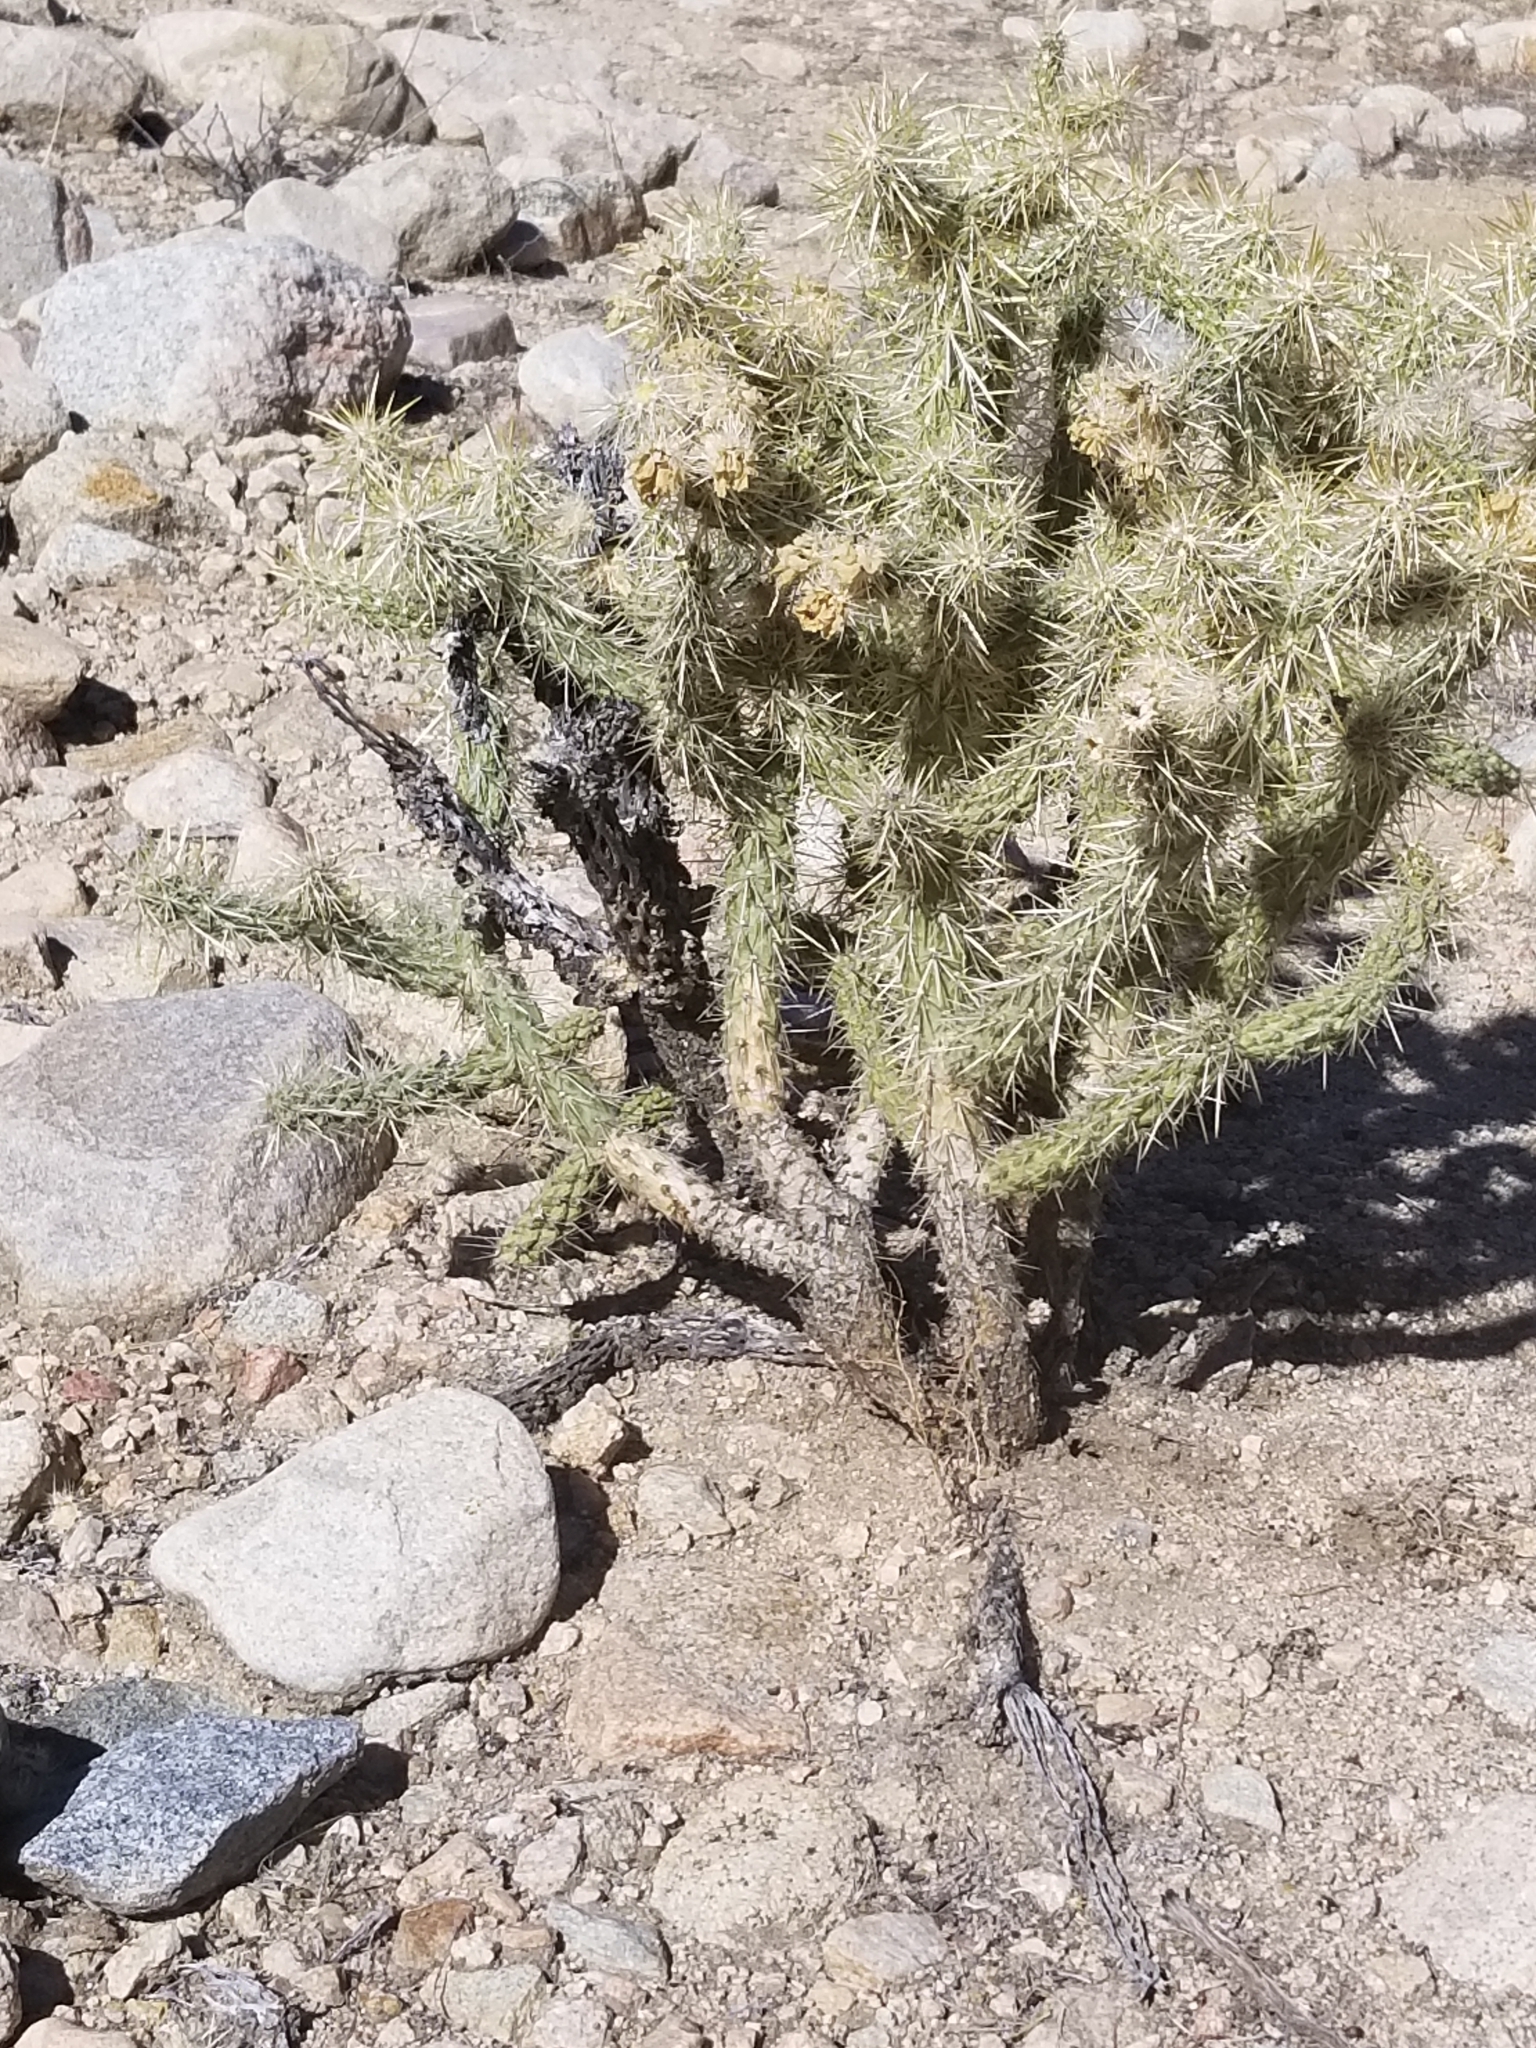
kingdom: Plantae
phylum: Tracheophyta
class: Magnoliopsida
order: Caryophyllales
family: Cactaceae
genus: Cylindropuntia
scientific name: Cylindropuntia echinocarpa
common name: Ground cholla
